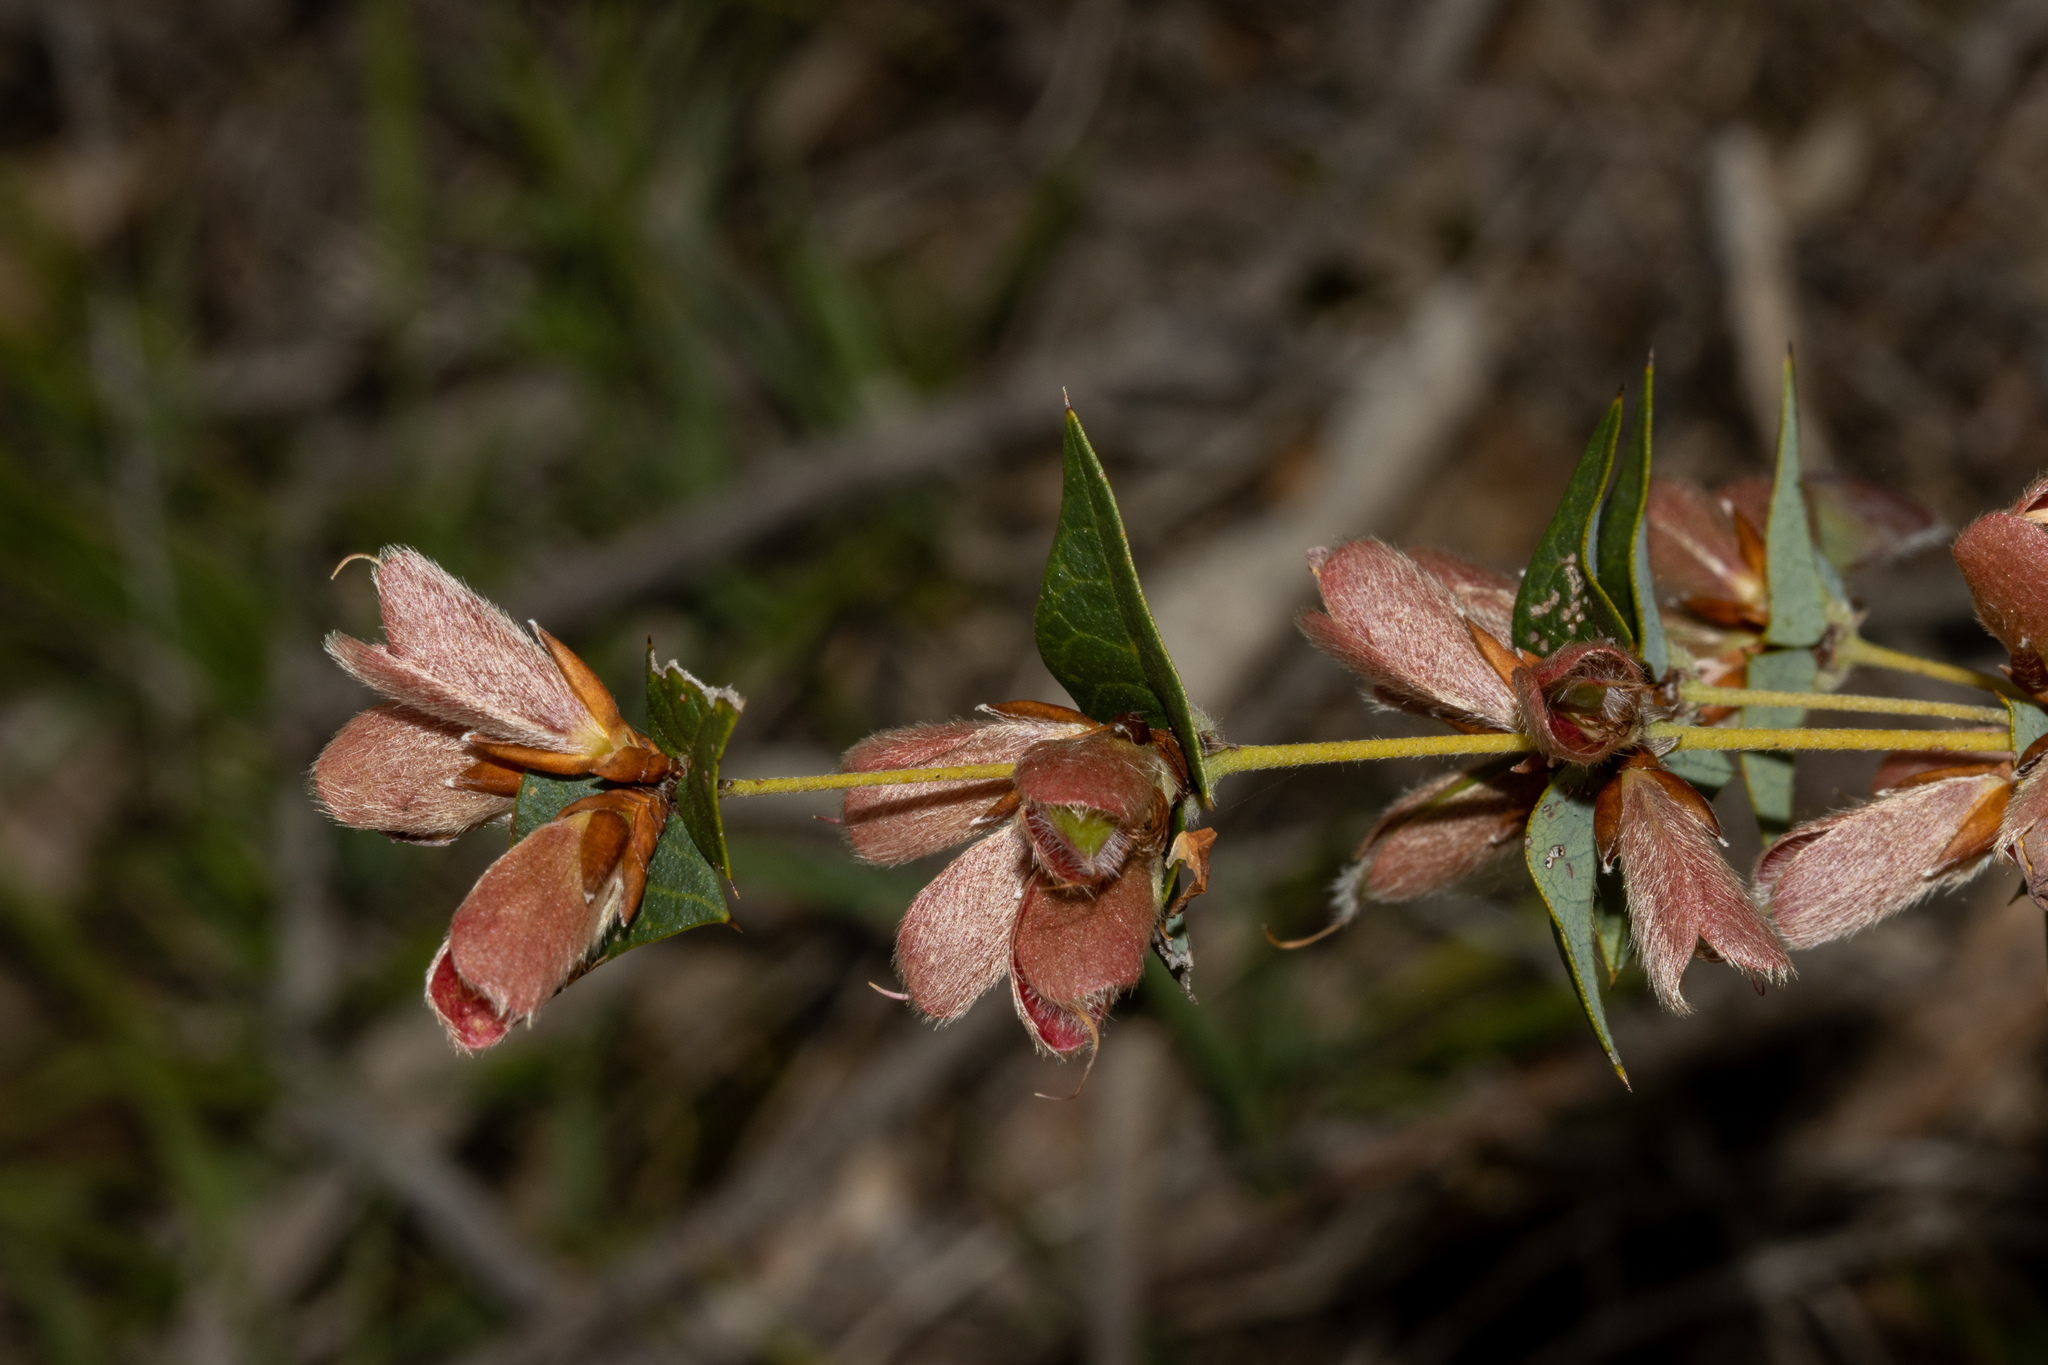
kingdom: Plantae
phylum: Tracheophyta
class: Magnoliopsida
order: Fabales
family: Fabaceae
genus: Platylobium
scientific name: Platylobium obtusangulum
